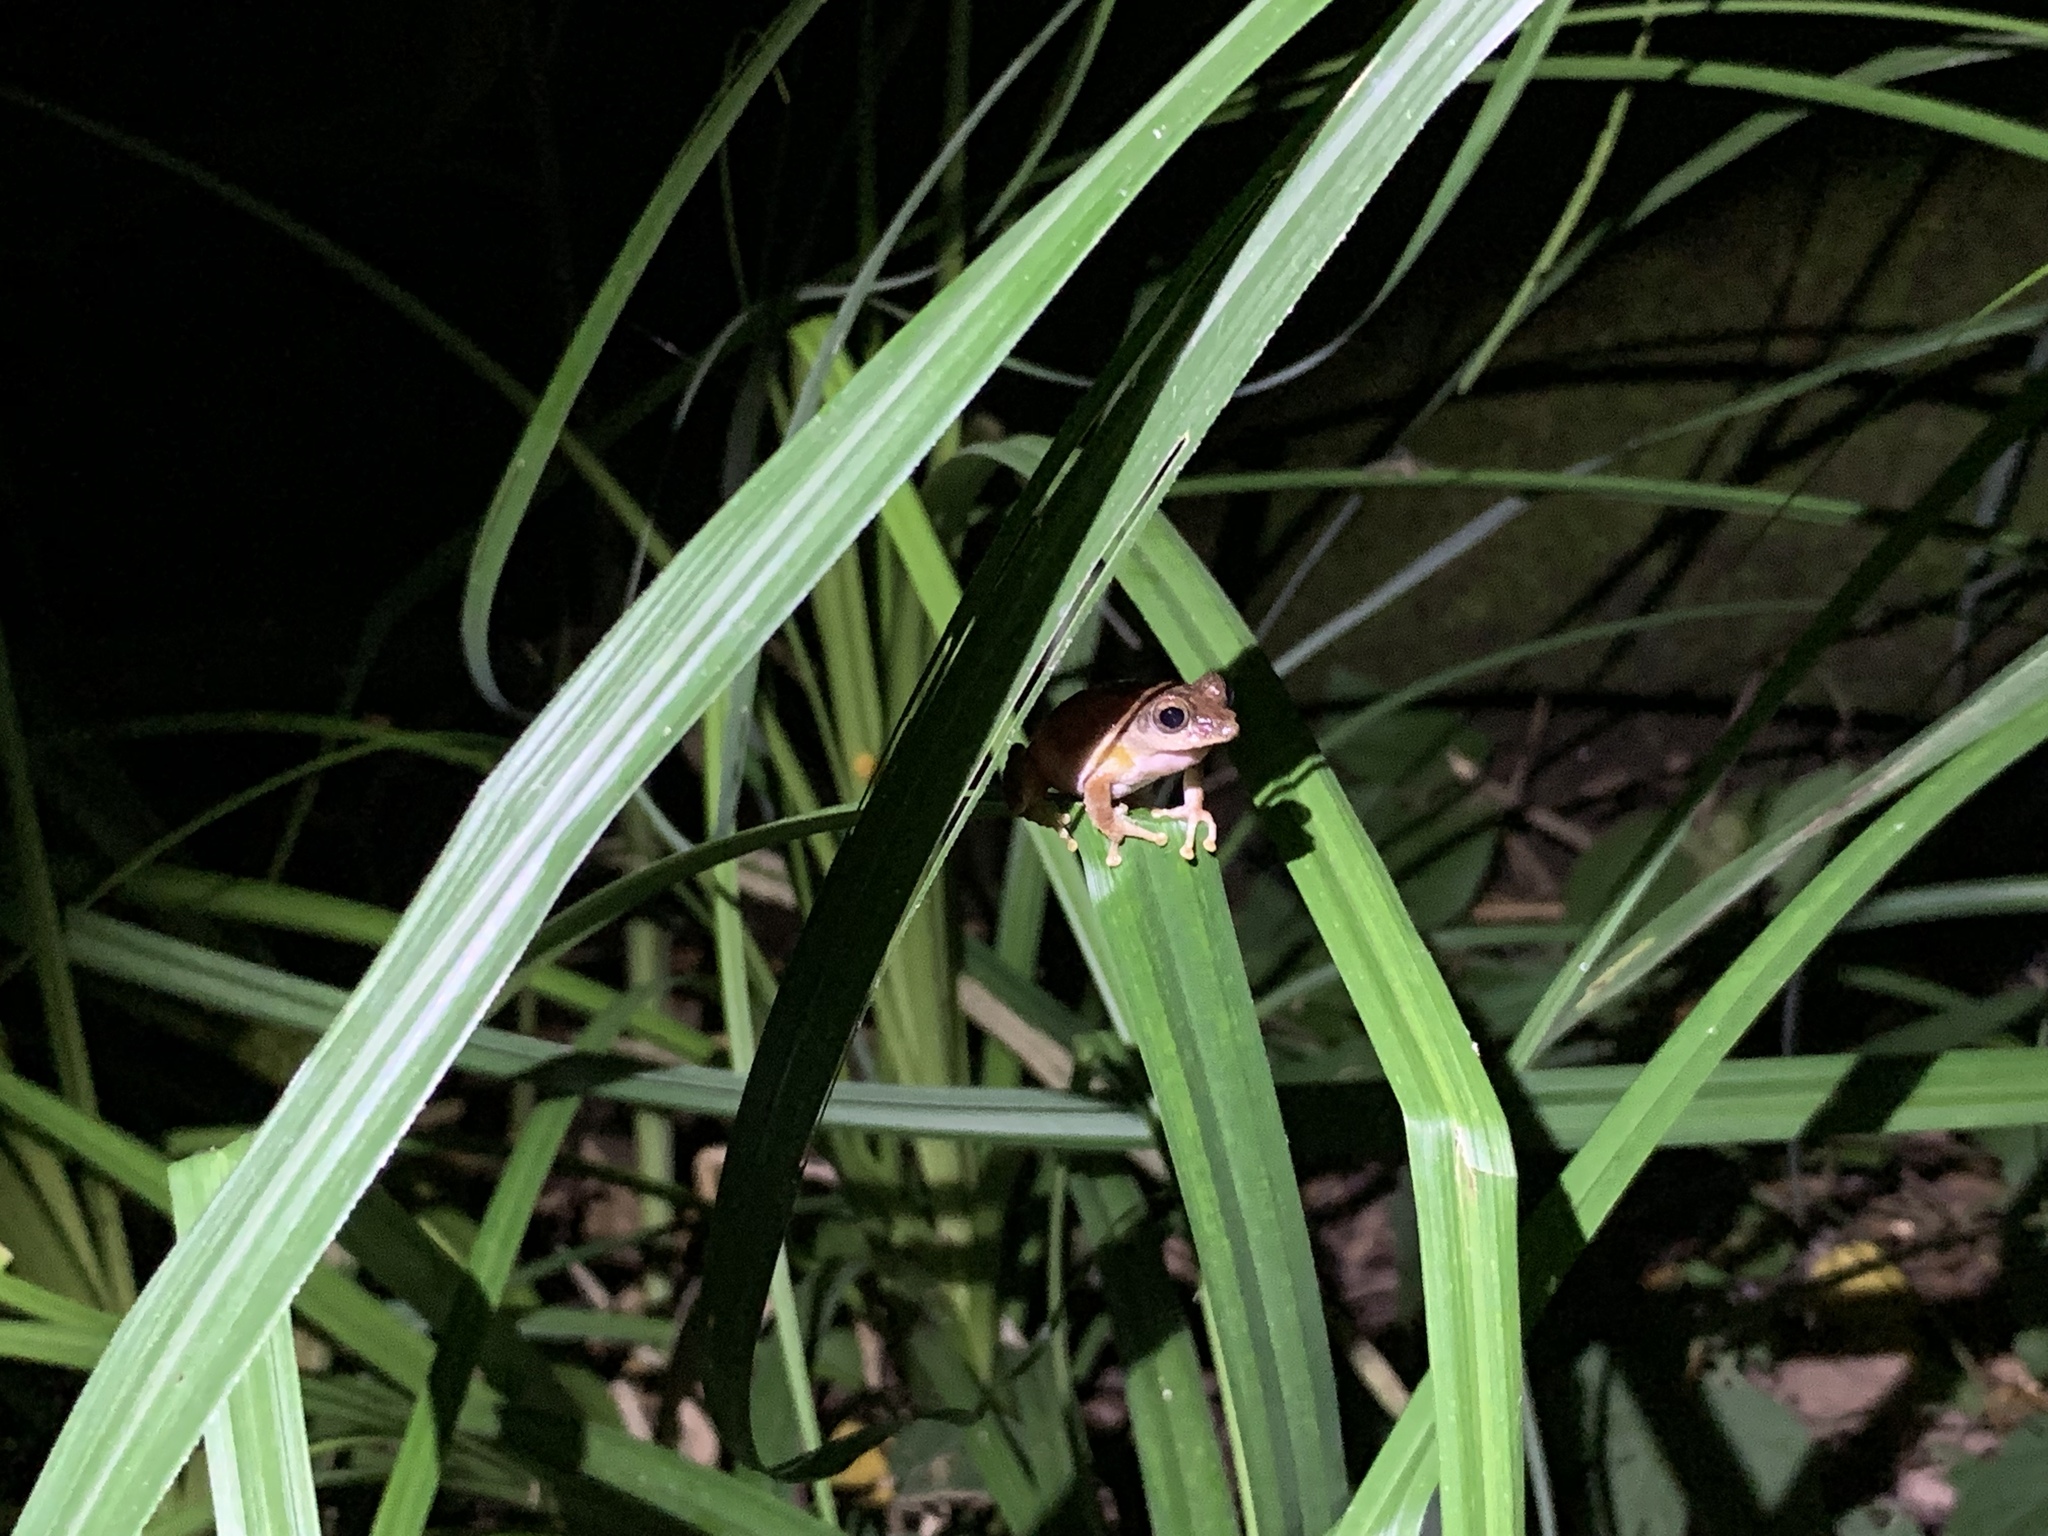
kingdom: Animalia
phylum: Chordata
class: Amphibia
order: Anura
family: Rhacophoridae
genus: Kurixalus
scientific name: Kurixalus idiootocus
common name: Temple treefrog
